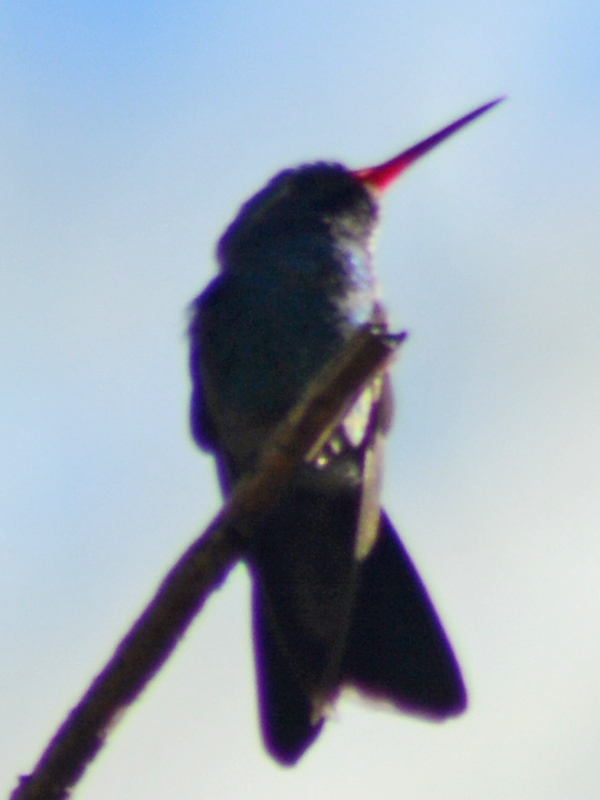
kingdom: Animalia
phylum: Chordata
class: Aves
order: Apodiformes
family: Trochilidae
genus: Cynanthus
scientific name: Cynanthus latirostris
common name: Broad-billed hummingbird
